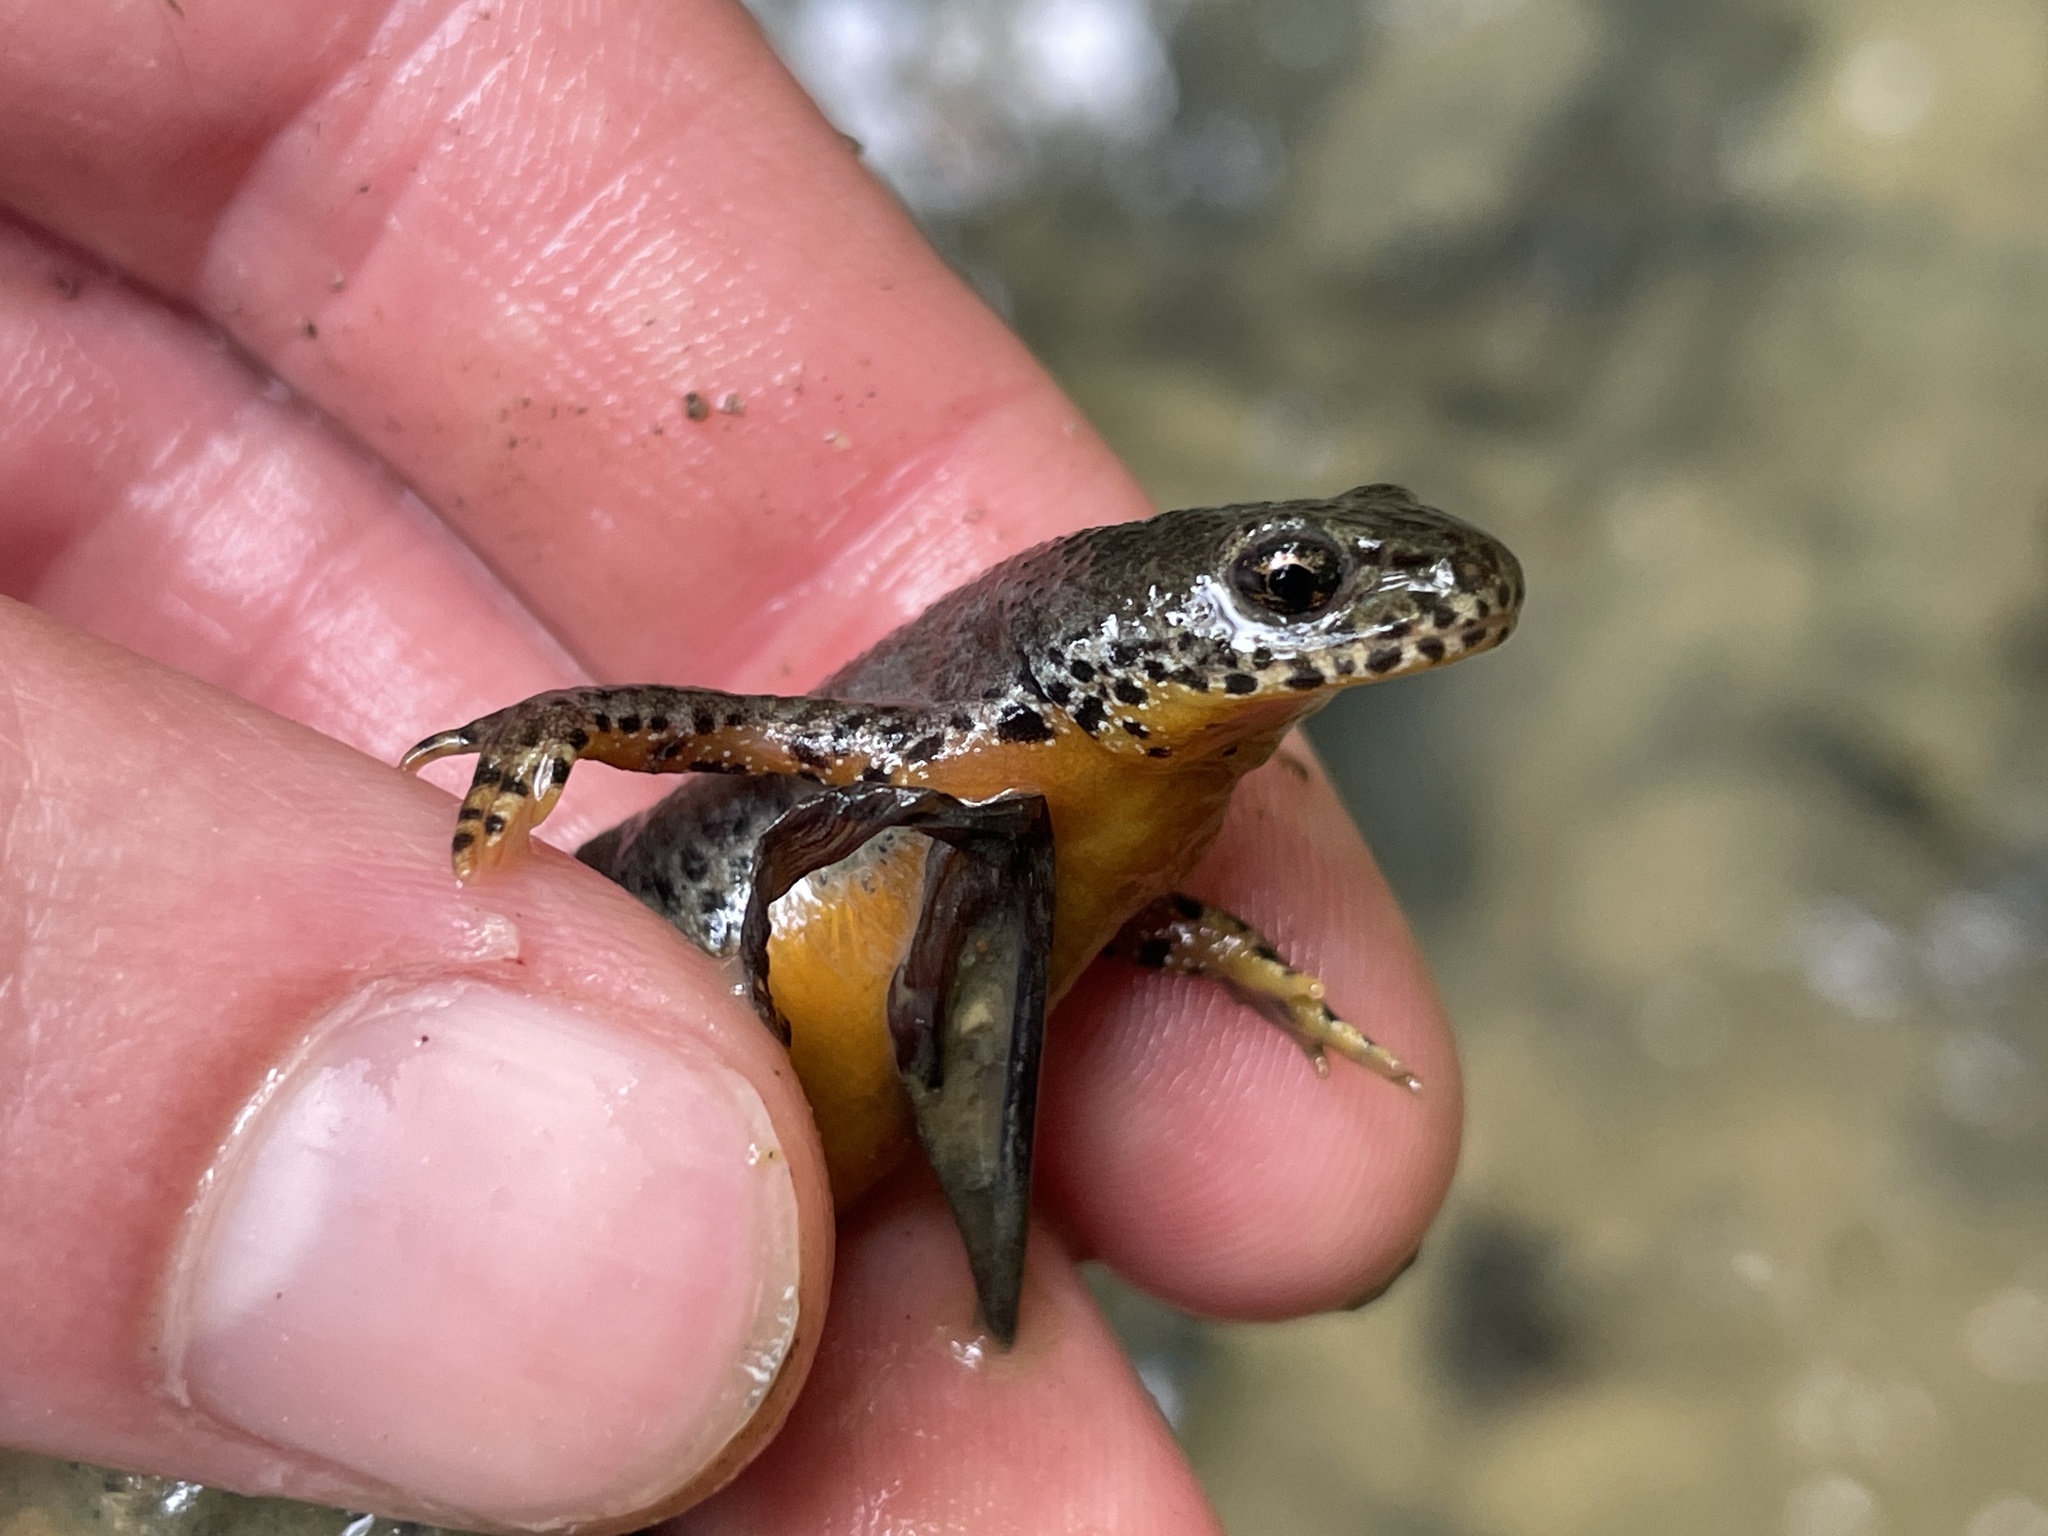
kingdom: Animalia
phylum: Chordata
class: Amphibia
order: Caudata
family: Salamandridae
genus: Ichthyosaura
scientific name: Ichthyosaura alpestris
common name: Alpine newt
